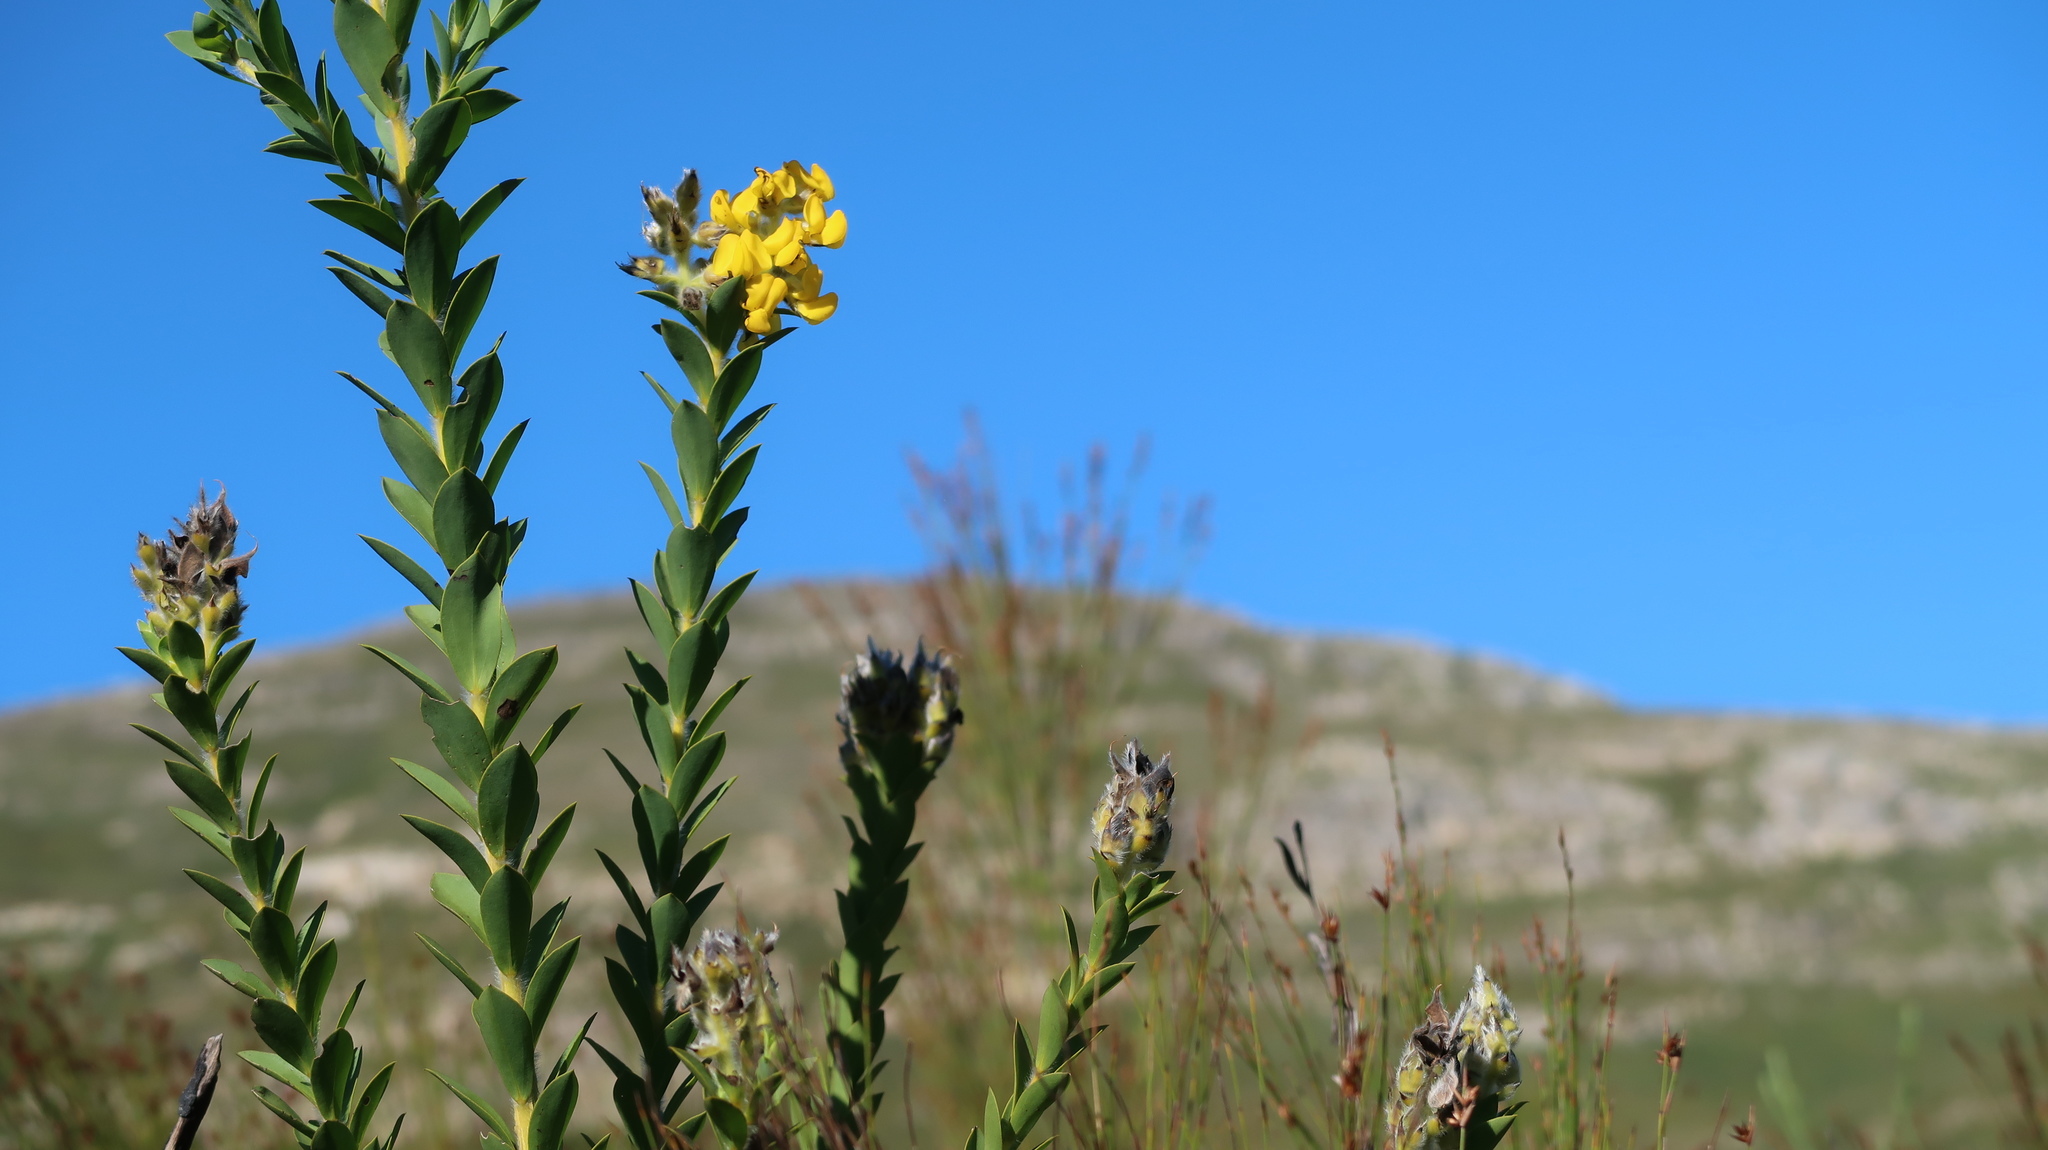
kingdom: Plantae
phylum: Tracheophyta
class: Magnoliopsida
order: Fabales
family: Fabaceae
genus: Liparia
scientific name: Liparia hirsuta
